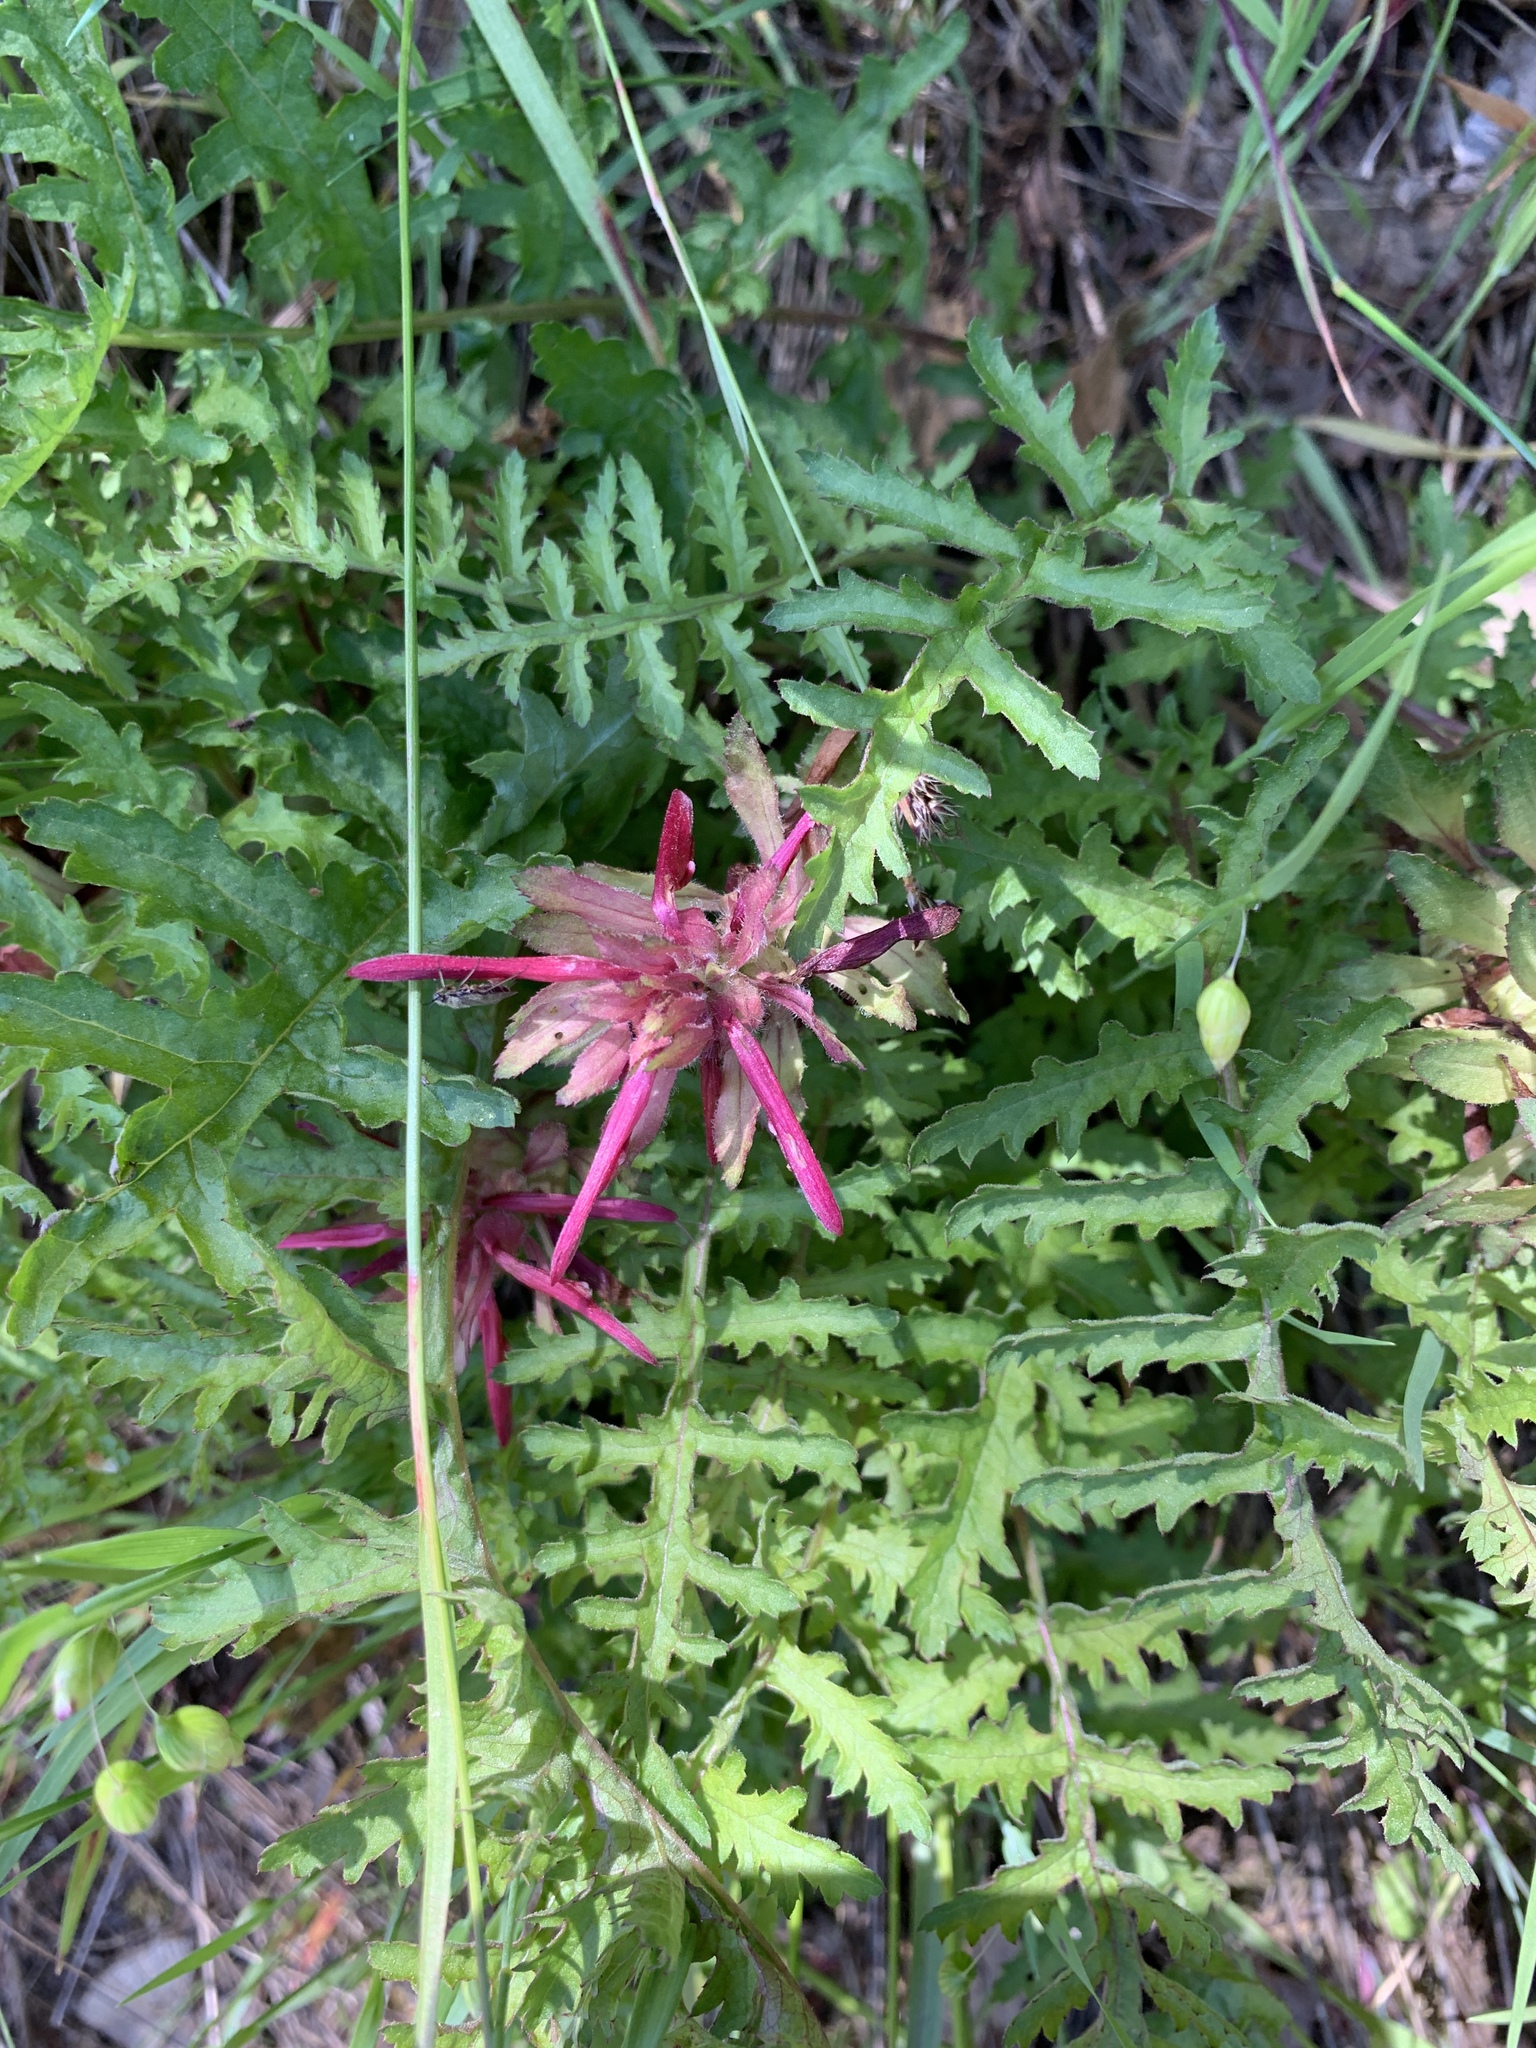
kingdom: Plantae
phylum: Tracheophyta
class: Magnoliopsida
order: Lamiales
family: Orobanchaceae
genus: Pedicularis
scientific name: Pedicularis densiflora
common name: Indian warrior
